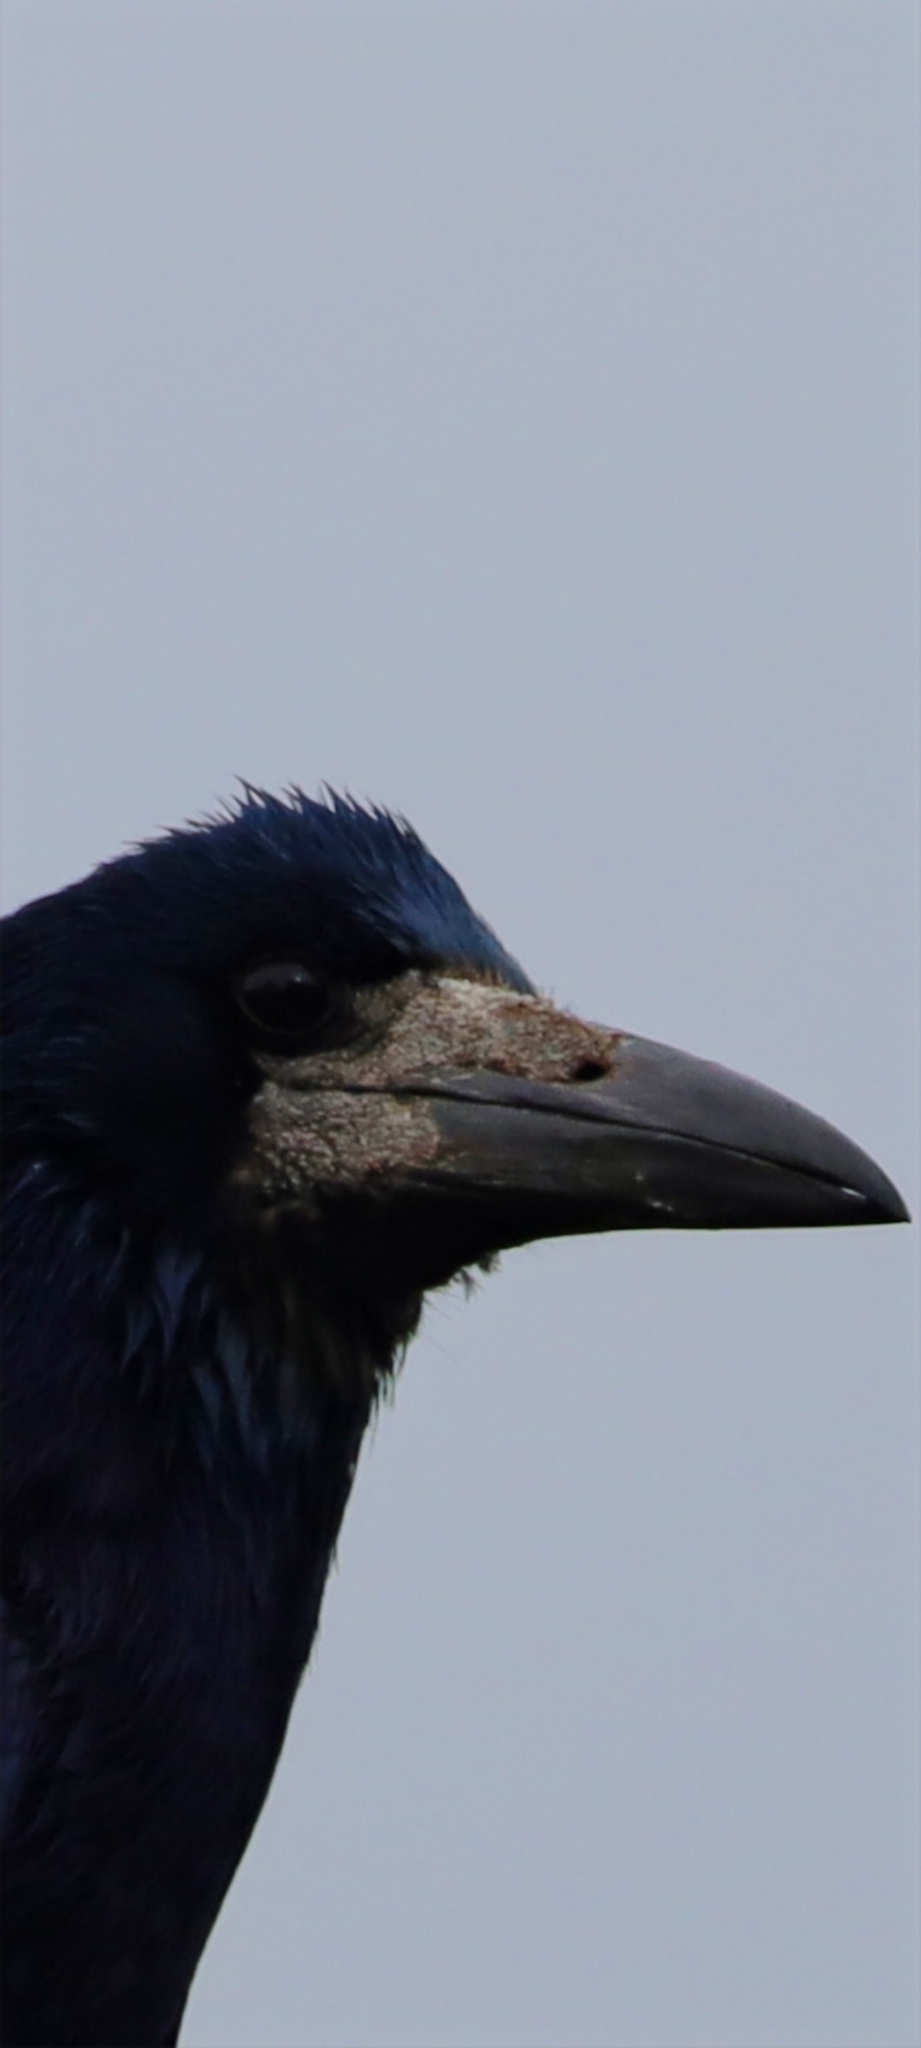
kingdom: Animalia
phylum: Chordata
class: Aves
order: Passeriformes
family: Corvidae
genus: Corvus
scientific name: Corvus frugilegus
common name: Rook
